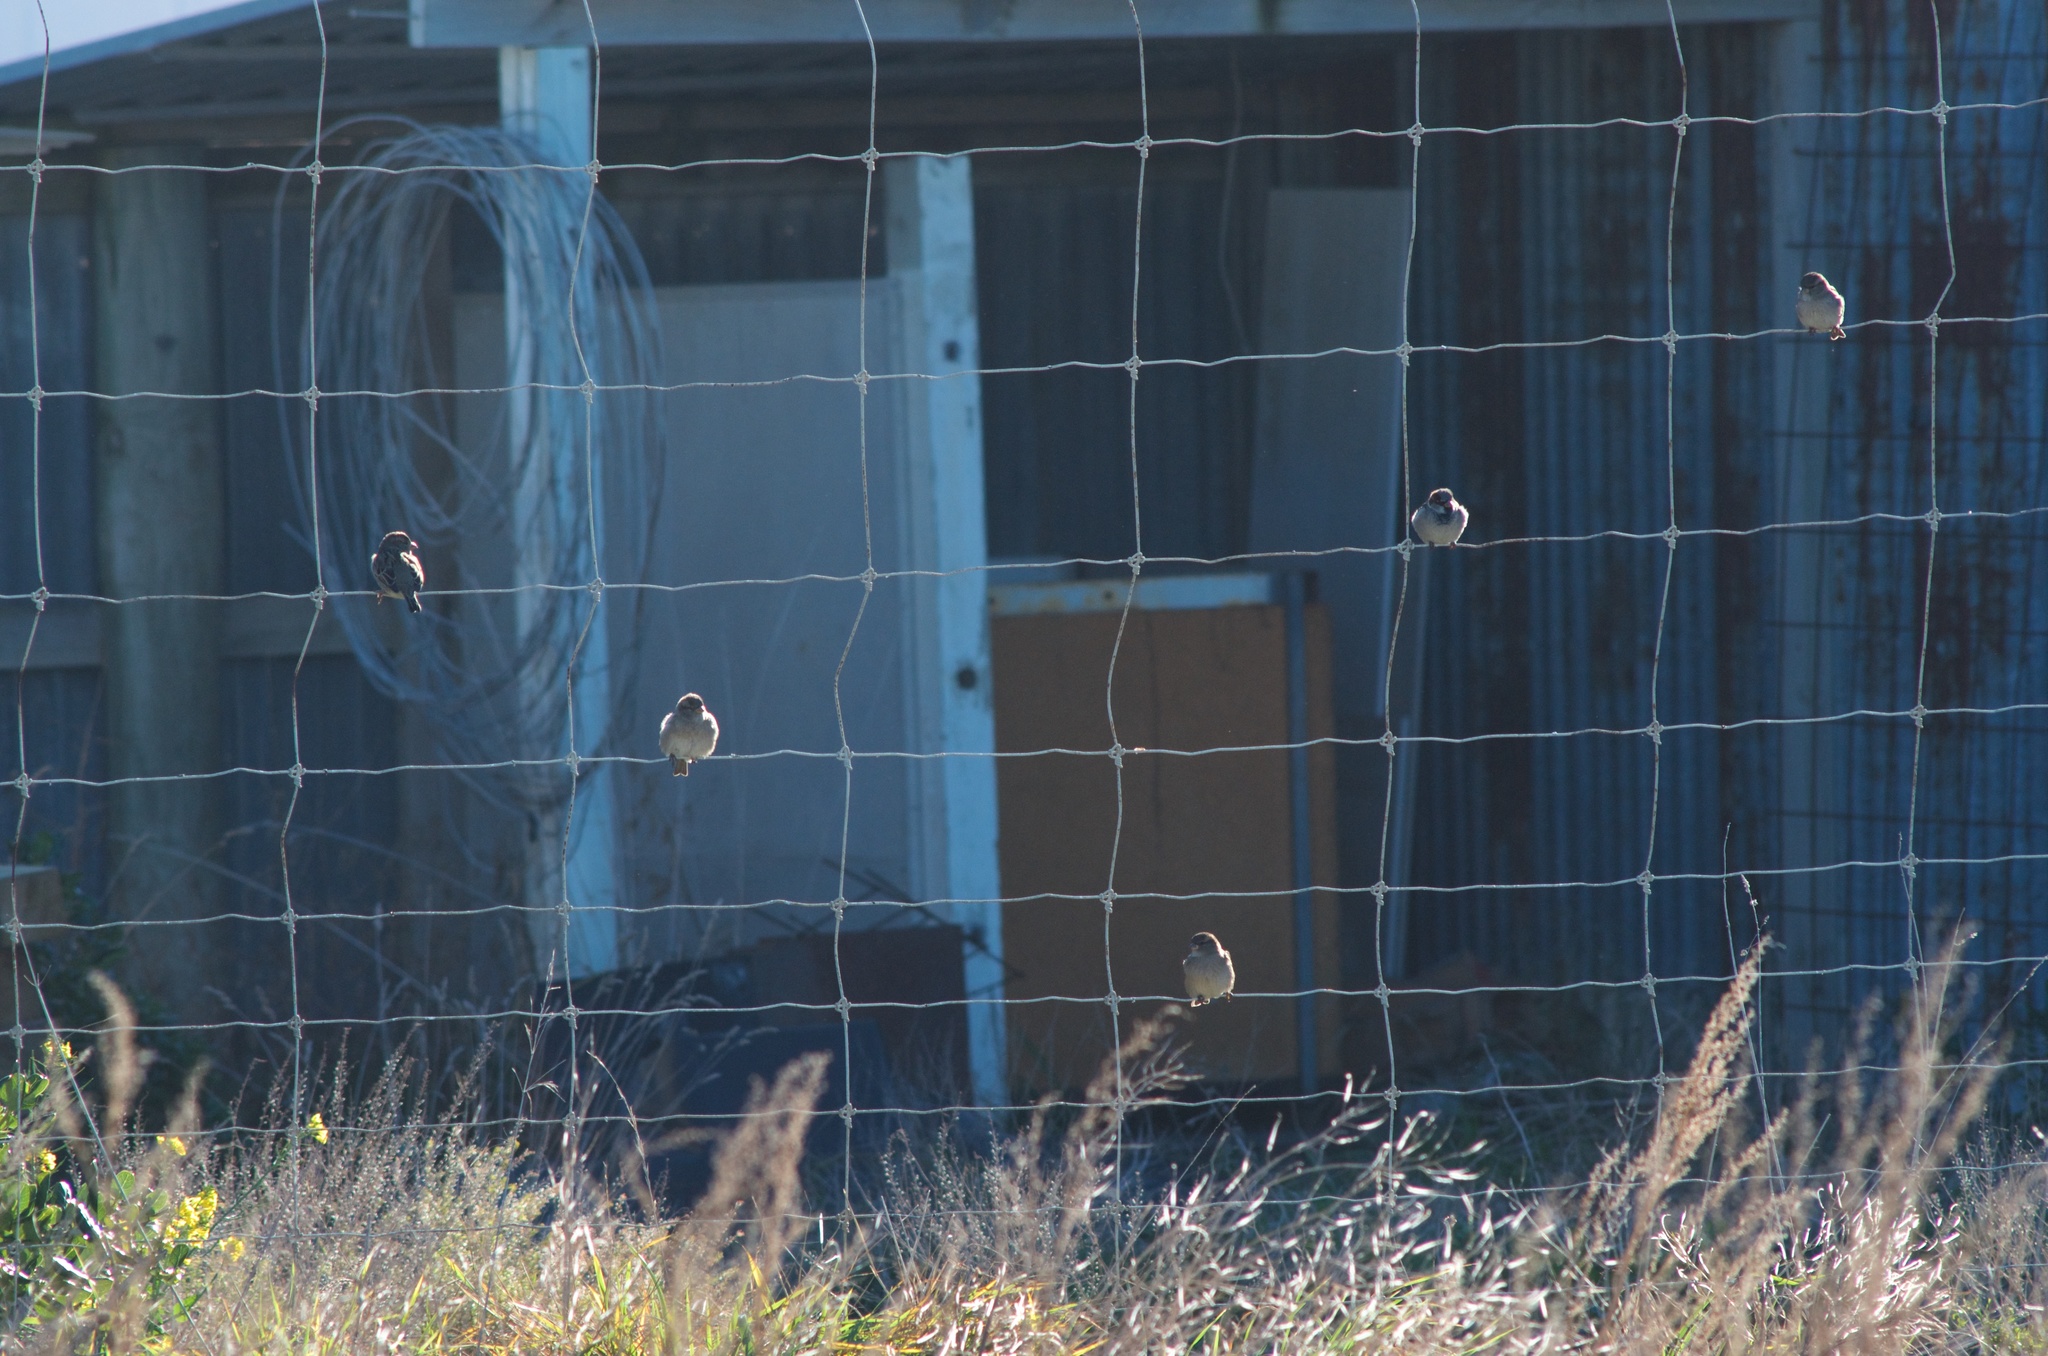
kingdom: Animalia
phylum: Chordata
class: Aves
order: Passeriformes
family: Passeridae
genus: Passer
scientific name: Passer domesticus
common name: House sparrow
